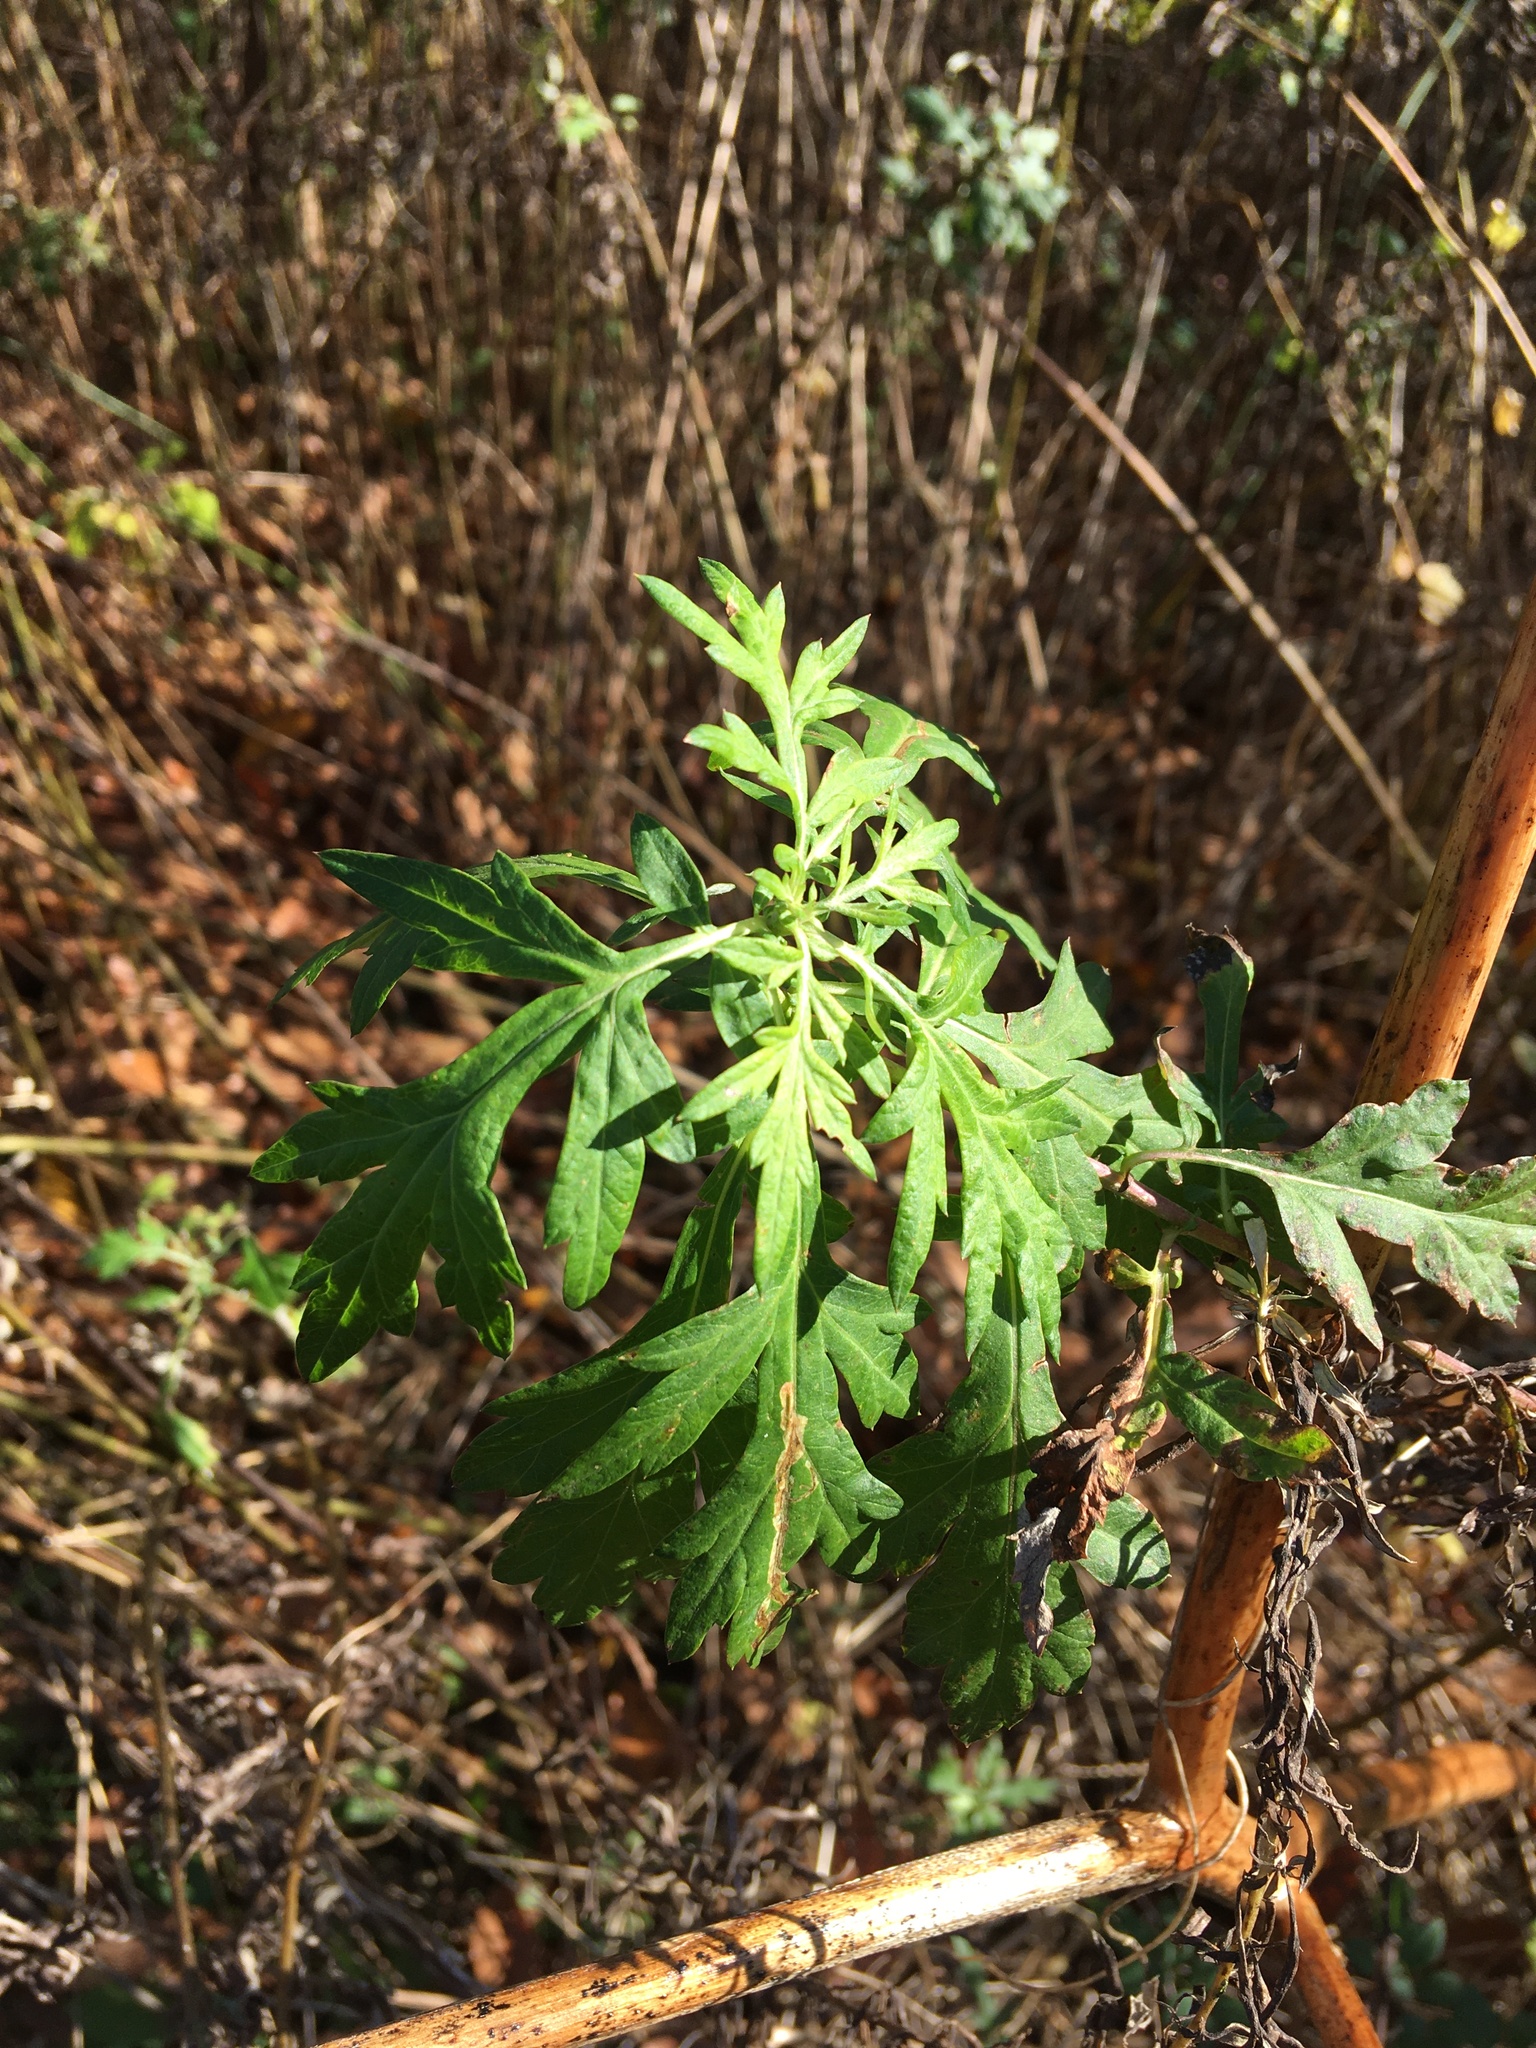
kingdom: Plantae
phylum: Tracheophyta
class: Magnoliopsida
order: Asterales
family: Asteraceae
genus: Artemisia
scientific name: Artemisia vulgaris
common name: Mugwort
